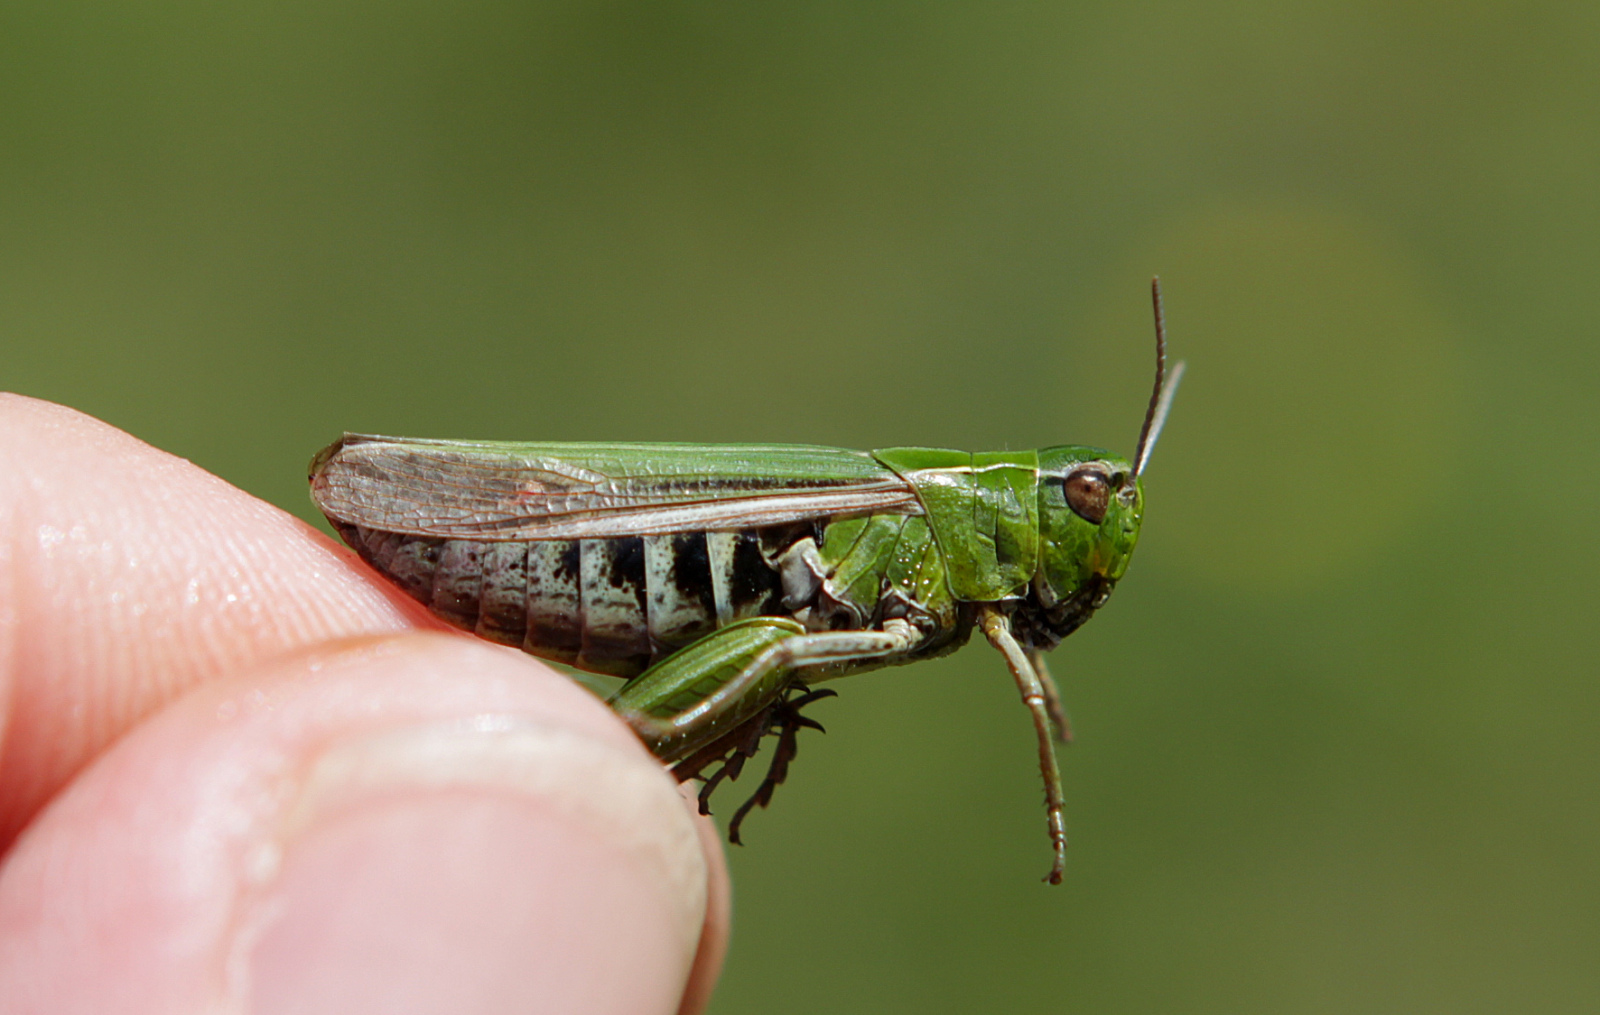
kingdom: Animalia
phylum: Arthropoda
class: Insecta
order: Orthoptera
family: Acrididae
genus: Omocestus
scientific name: Omocestus viridulus
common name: Common green grasshopper
